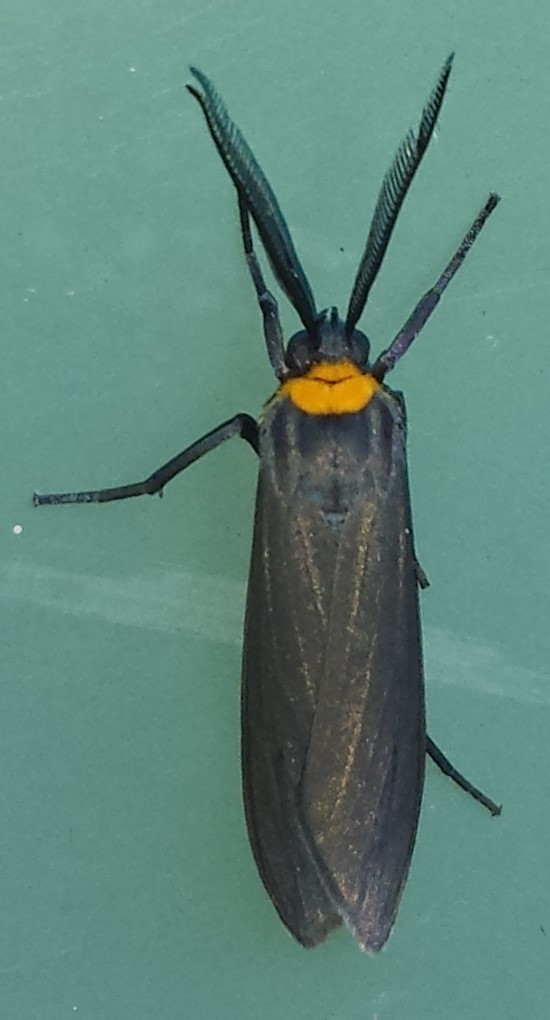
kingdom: Animalia
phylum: Arthropoda
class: Insecta
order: Lepidoptera
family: Erebidae
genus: Cisseps
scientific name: Cisseps fulvicollis
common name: Yellow-collared scape moth
